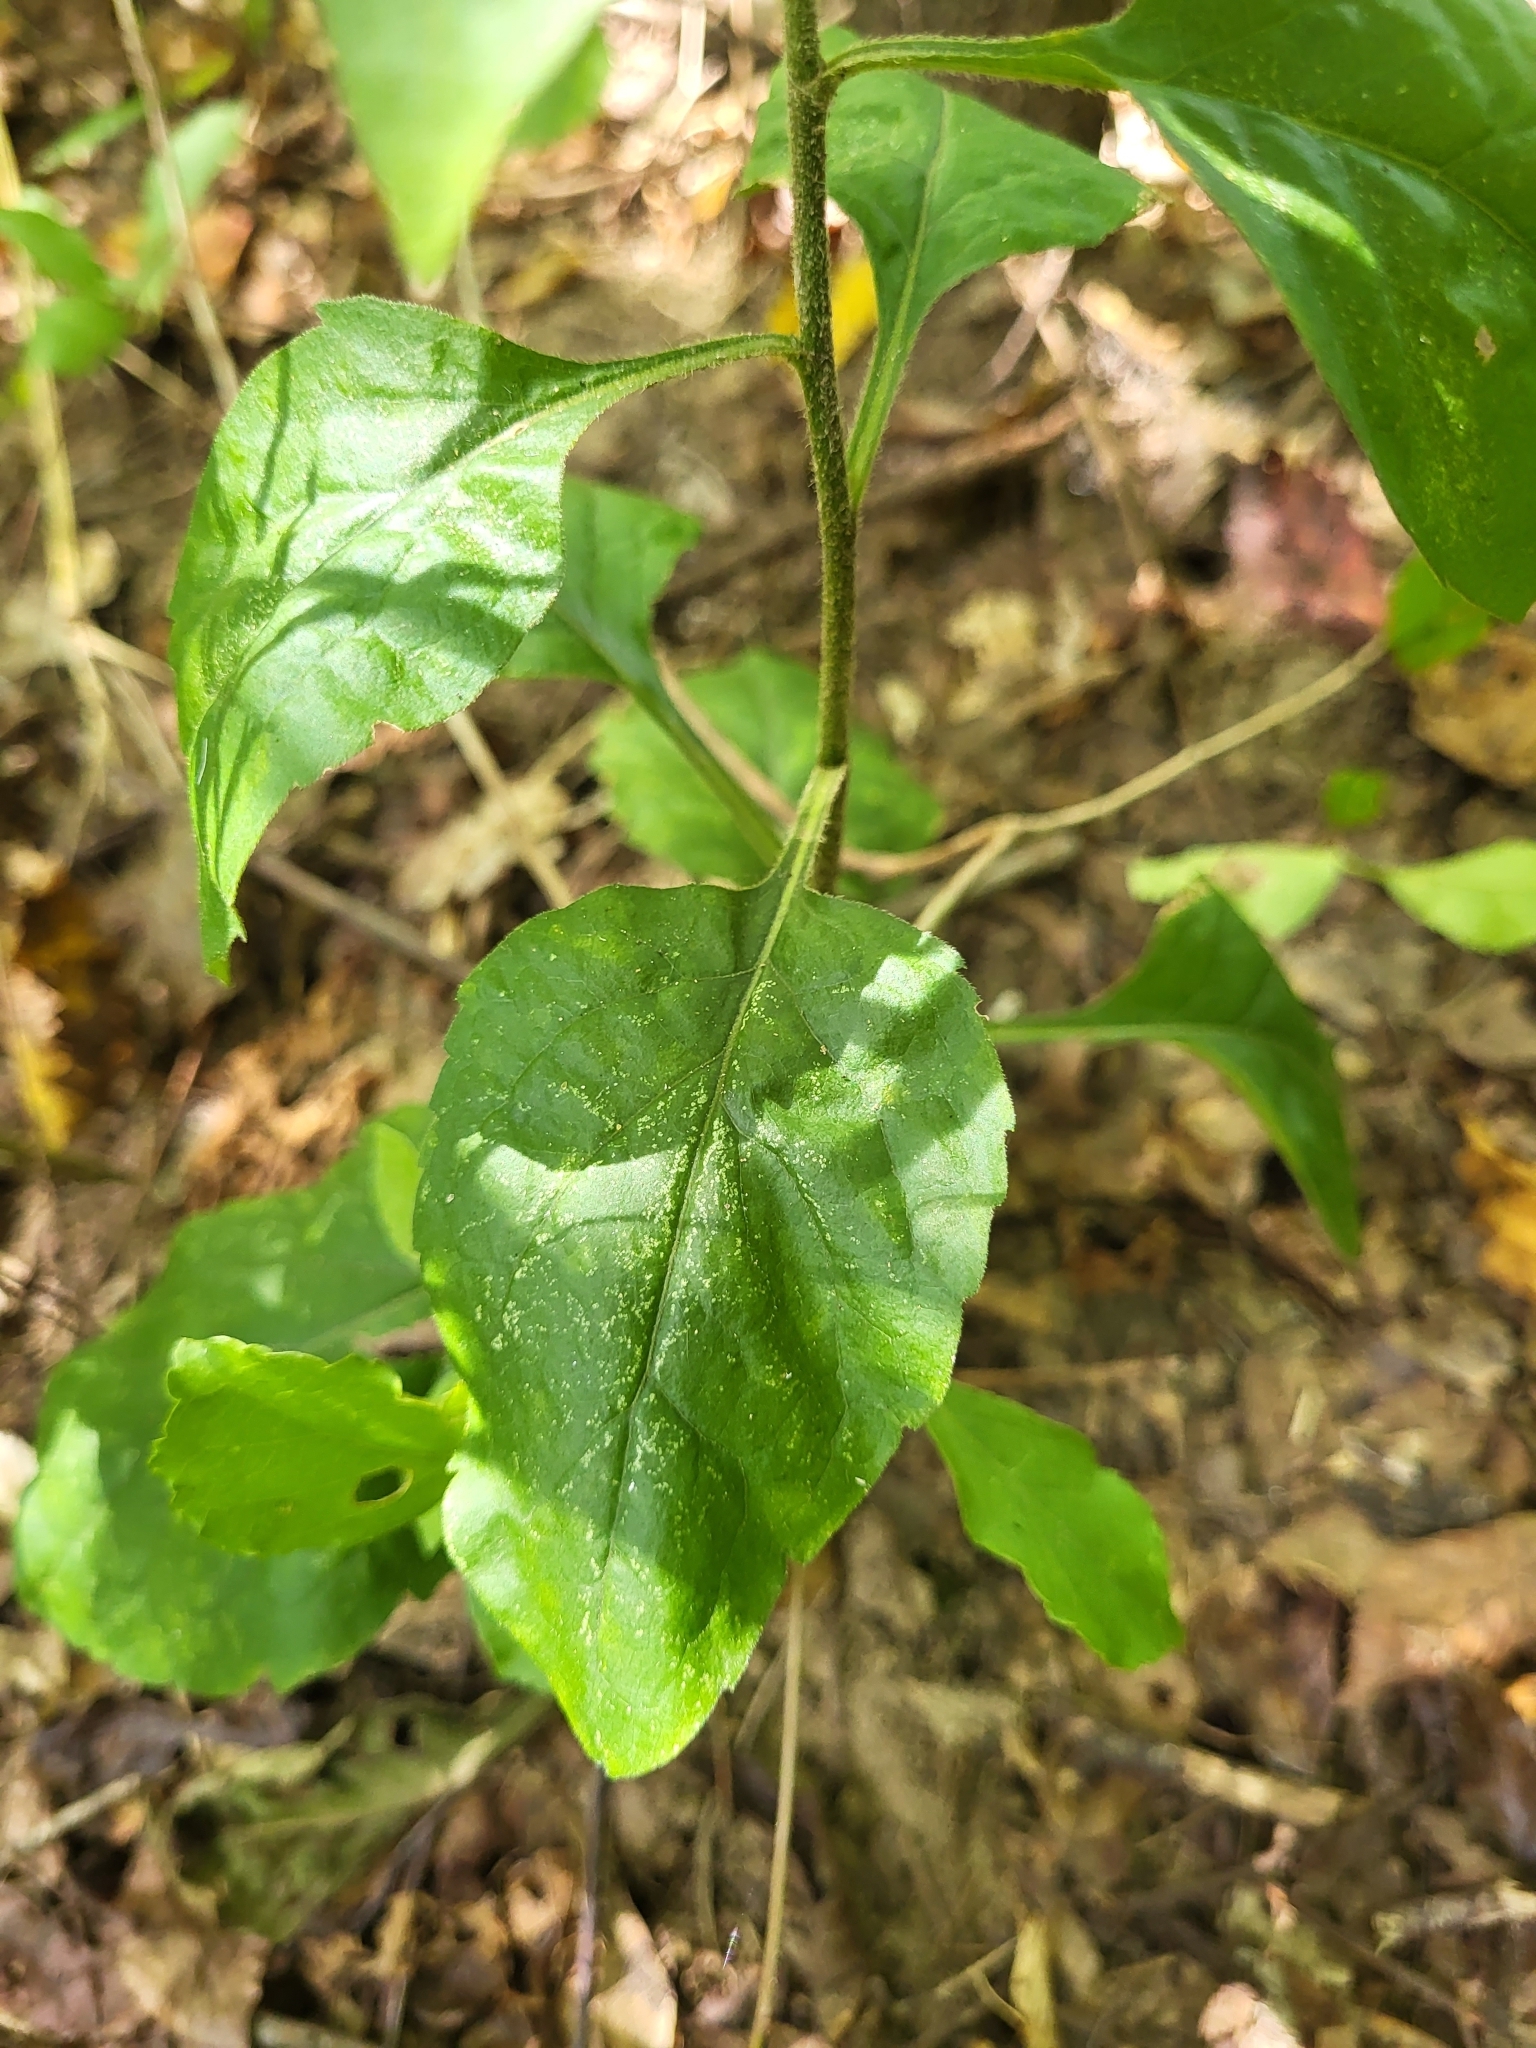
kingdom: Plantae
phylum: Tracheophyta
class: Magnoliopsida
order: Asterales
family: Asteraceae
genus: Solidago
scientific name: Solidago discoidea
